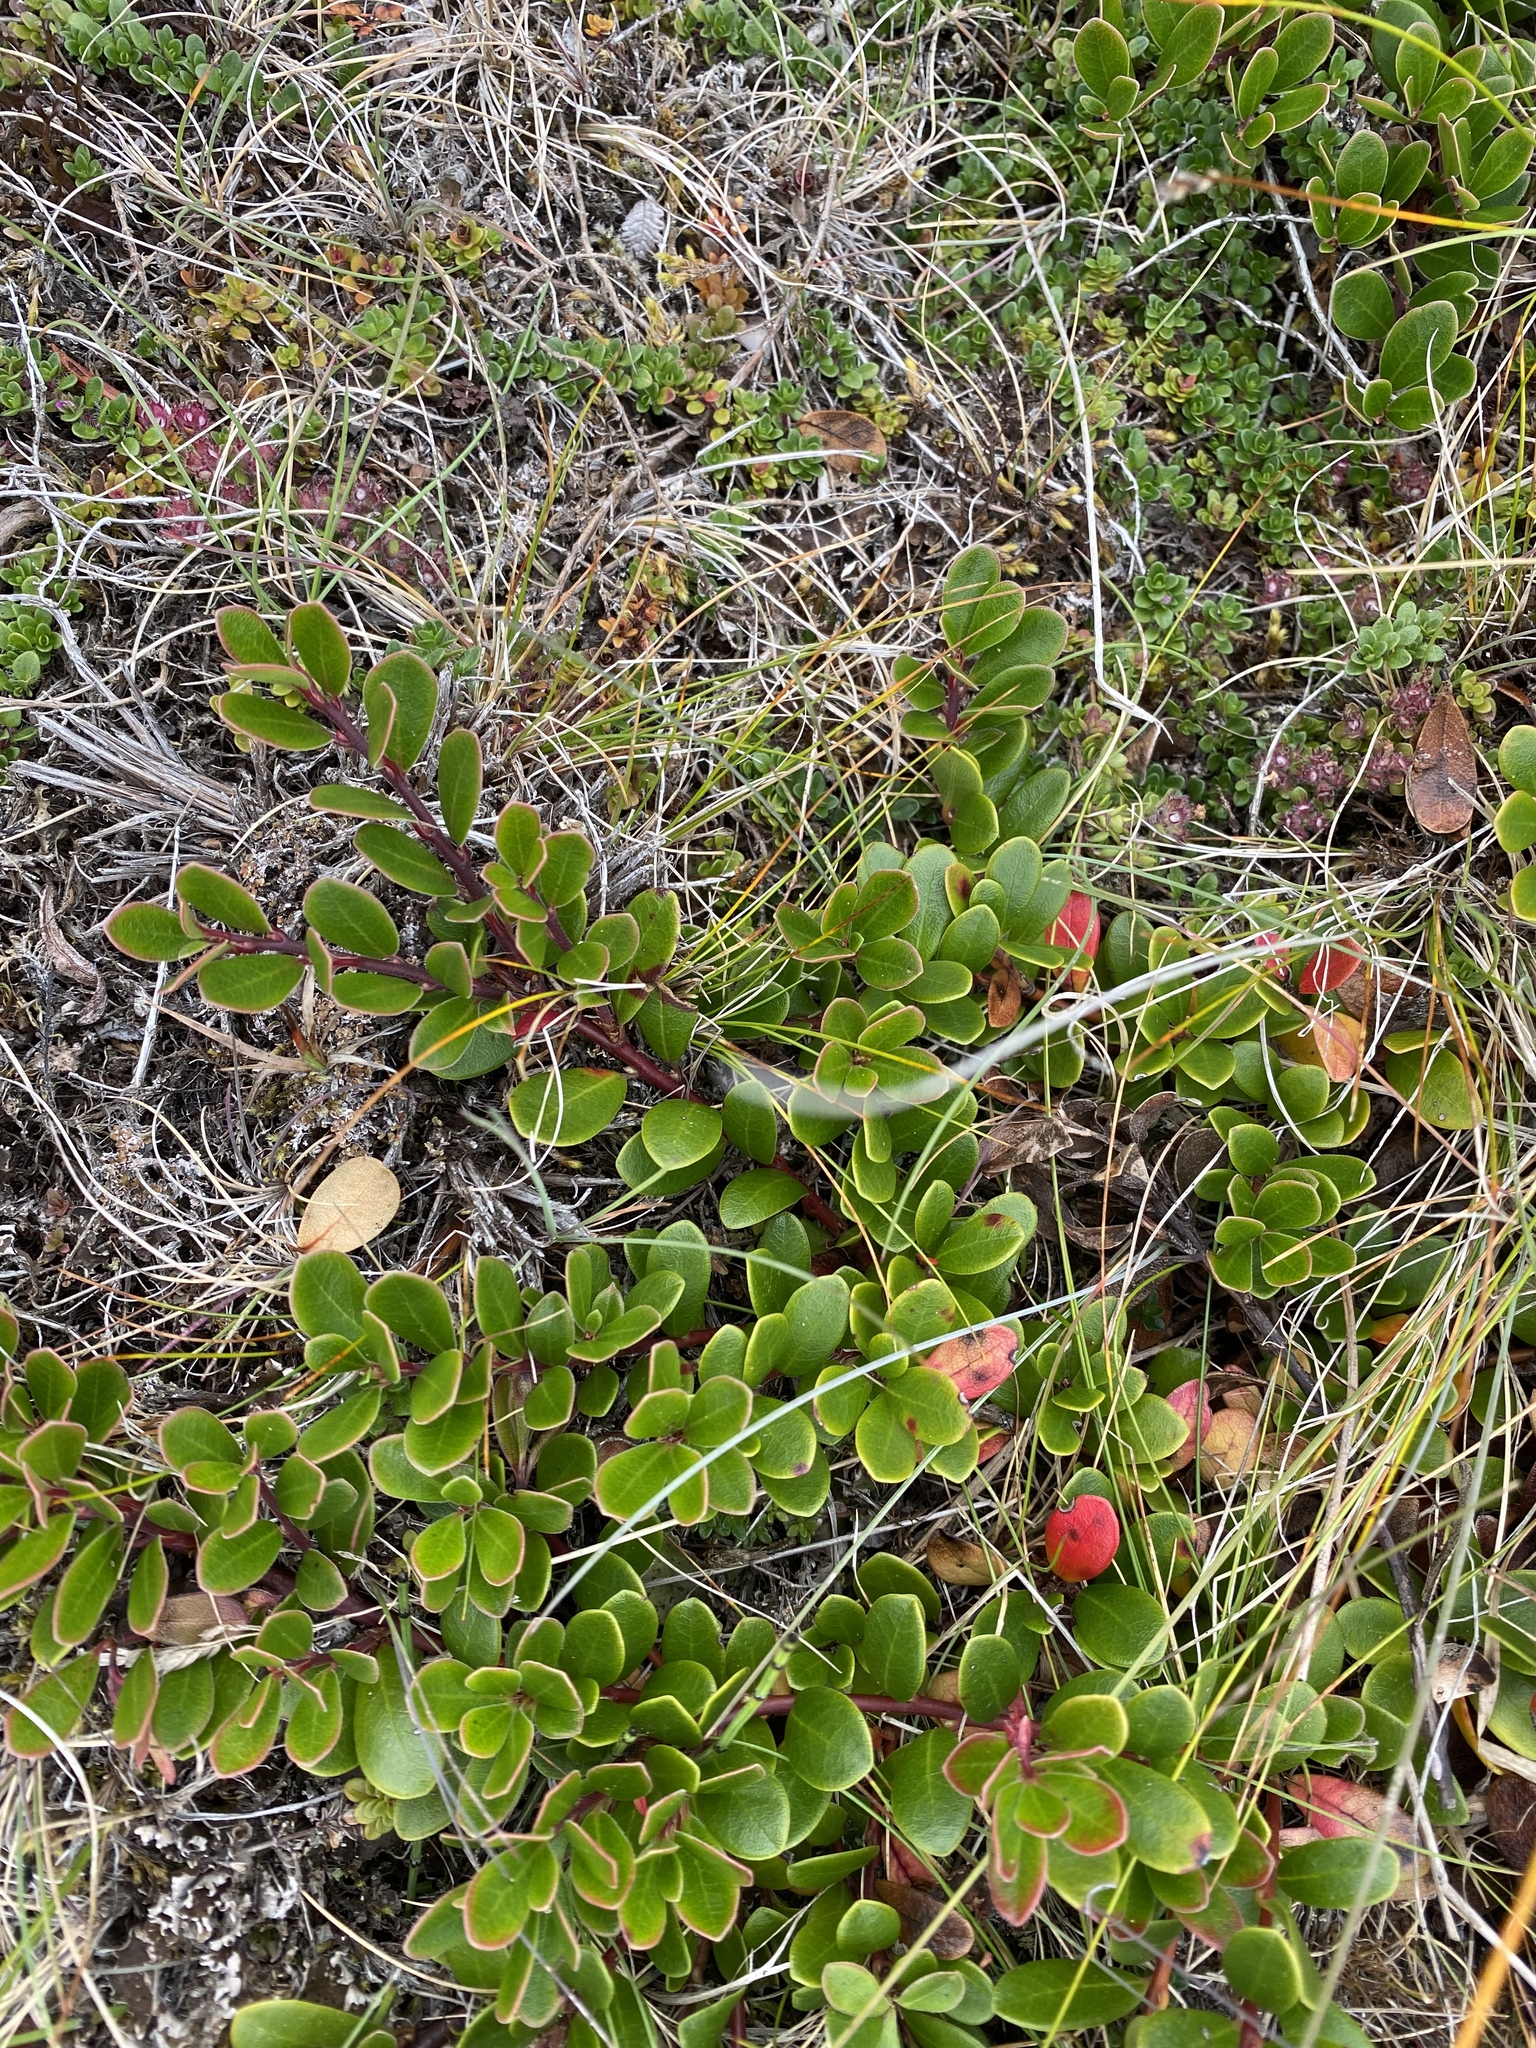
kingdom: Plantae
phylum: Tracheophyta
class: Magnoliopsida
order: Ericales
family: Ericaceae
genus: Arctostaphylos
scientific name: Arctostaphylos uva-ursi
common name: Bearberry
